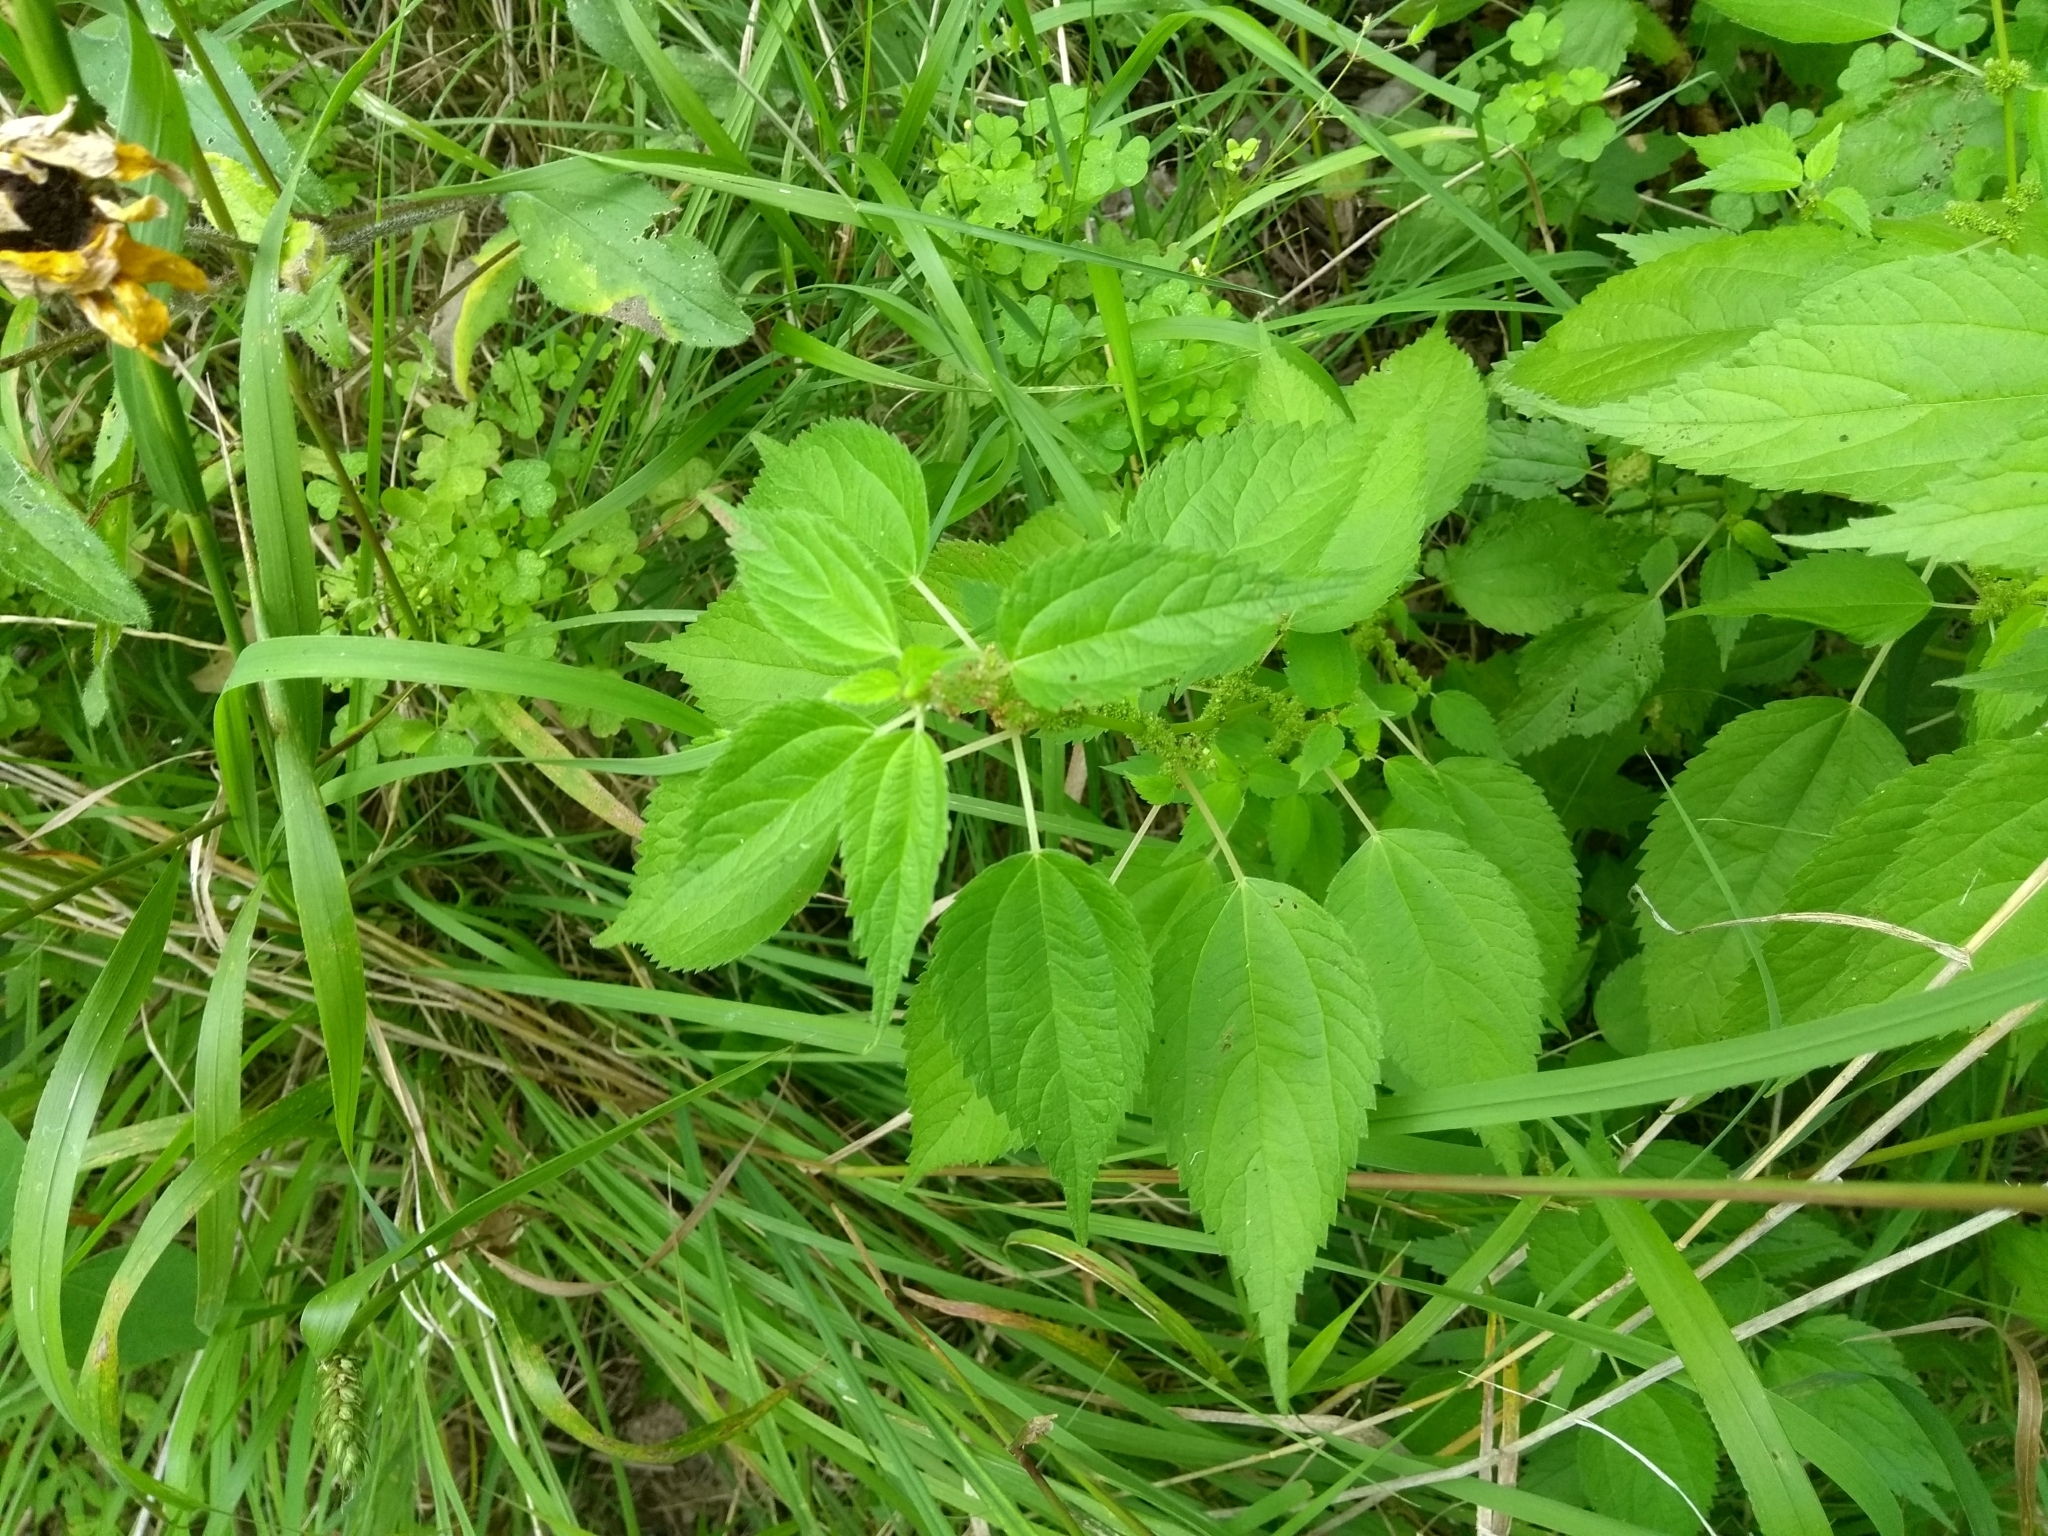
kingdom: Plantae
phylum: Tracheophyta
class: Magnoliopsida
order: Rosales
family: Urticaceae
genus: Boehmeria
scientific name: Boehmeria cylindrica
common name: Bog-hemp
